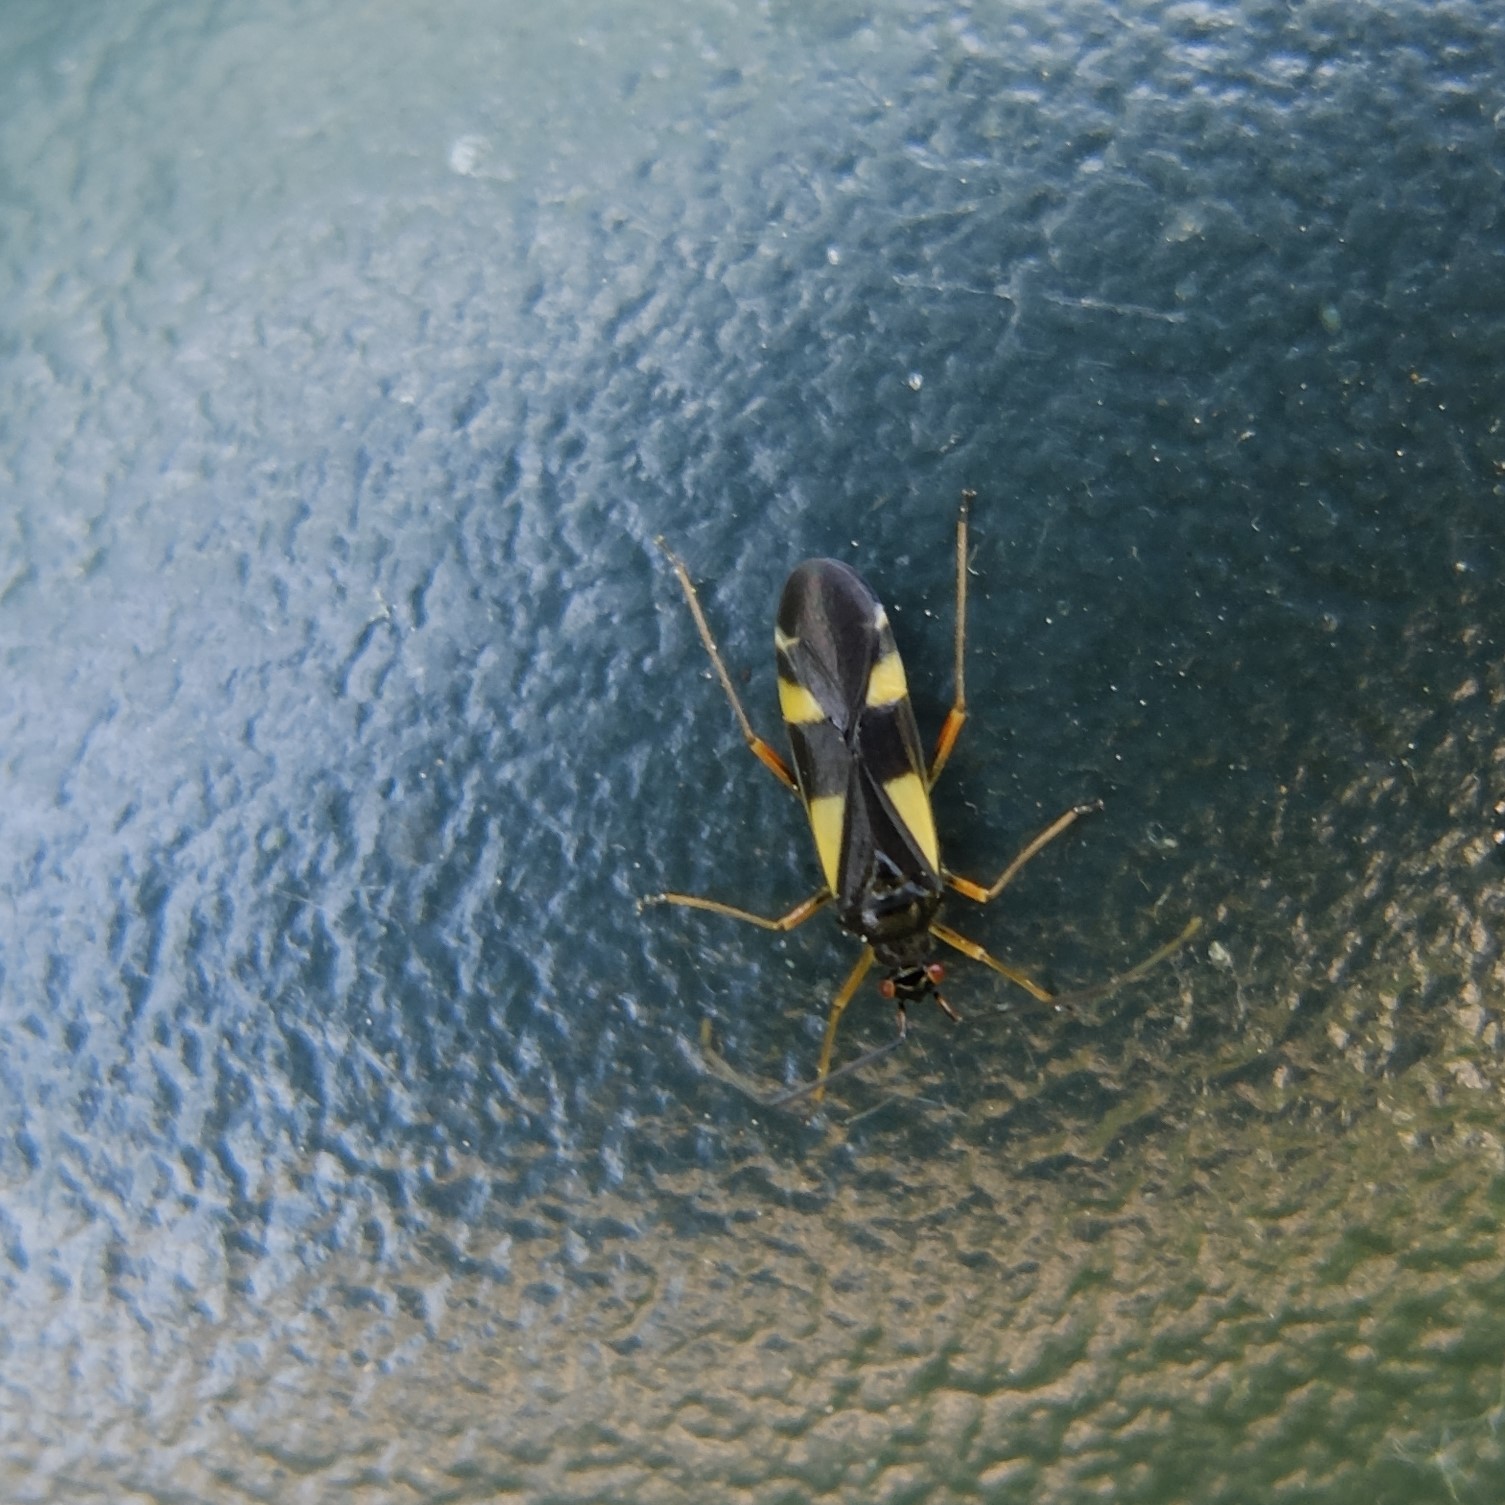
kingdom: Animalia
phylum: Arthropoda
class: Insecta
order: Hemiptera
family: Miridae
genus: Dryophilocoris
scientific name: Dryophilocoris flavoquadrimaculatus
